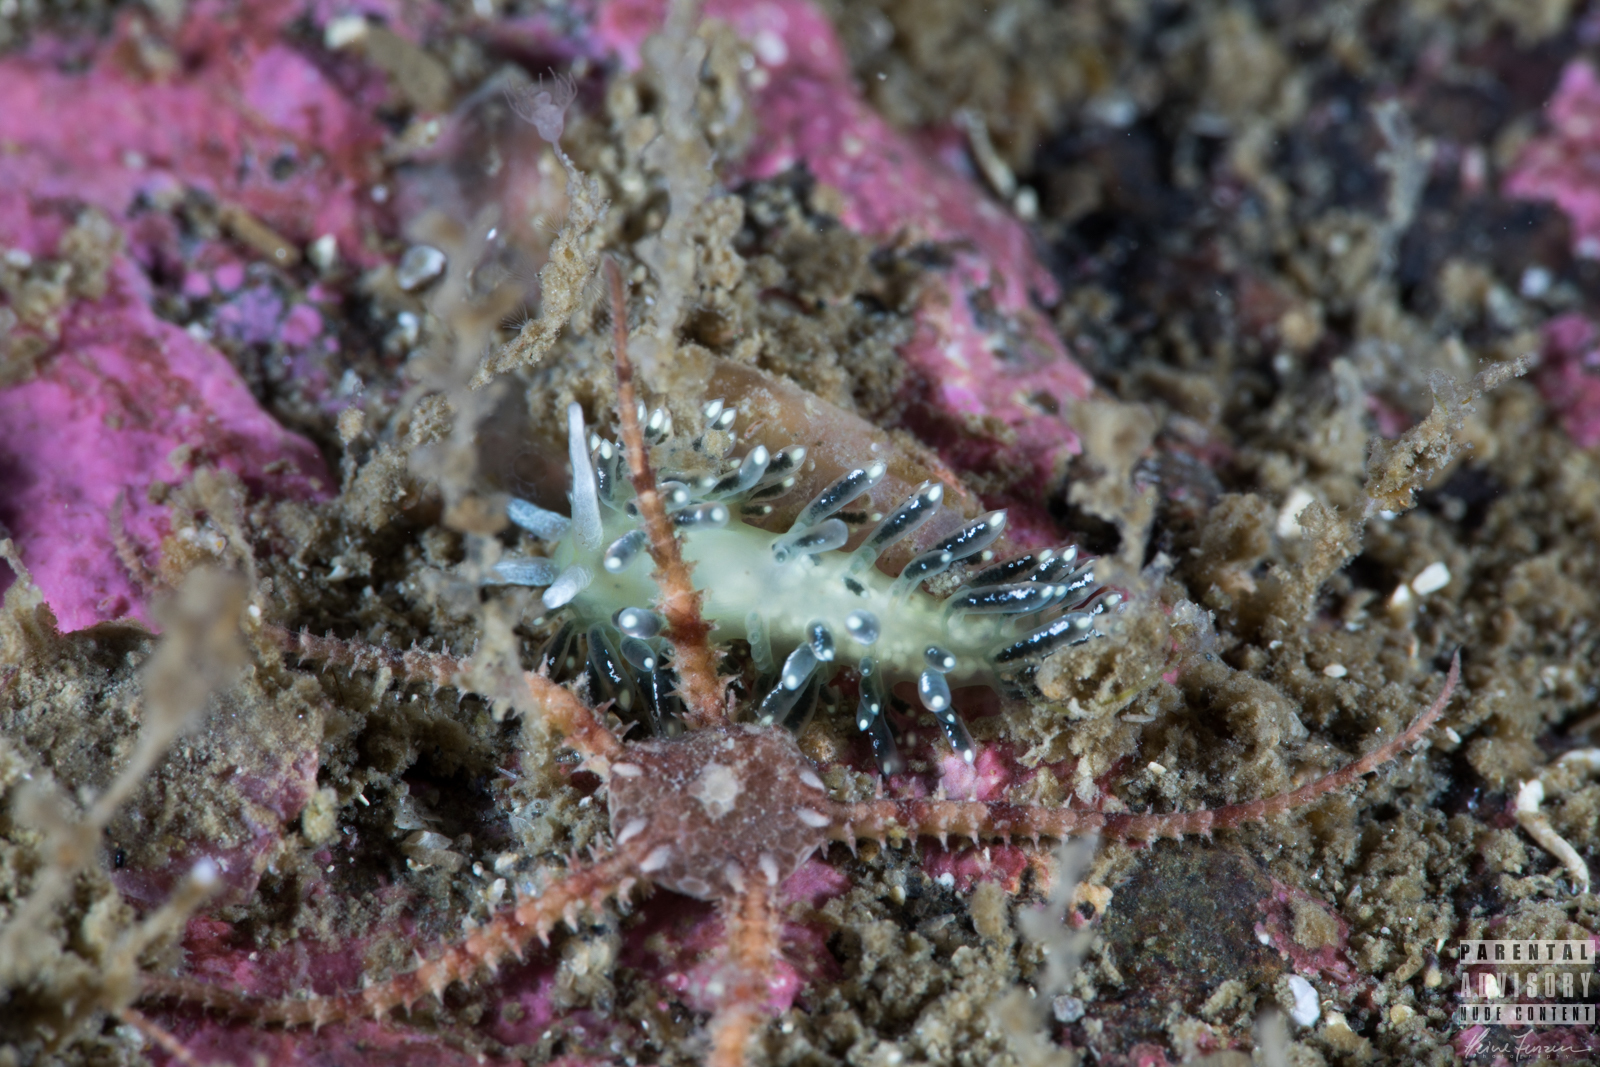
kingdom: Animalia
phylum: Mollusca
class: Gastropoda
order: Nudibranchia
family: Trinchesiidae
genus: Diaphoreolis
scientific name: Diaphoreolis viridis
